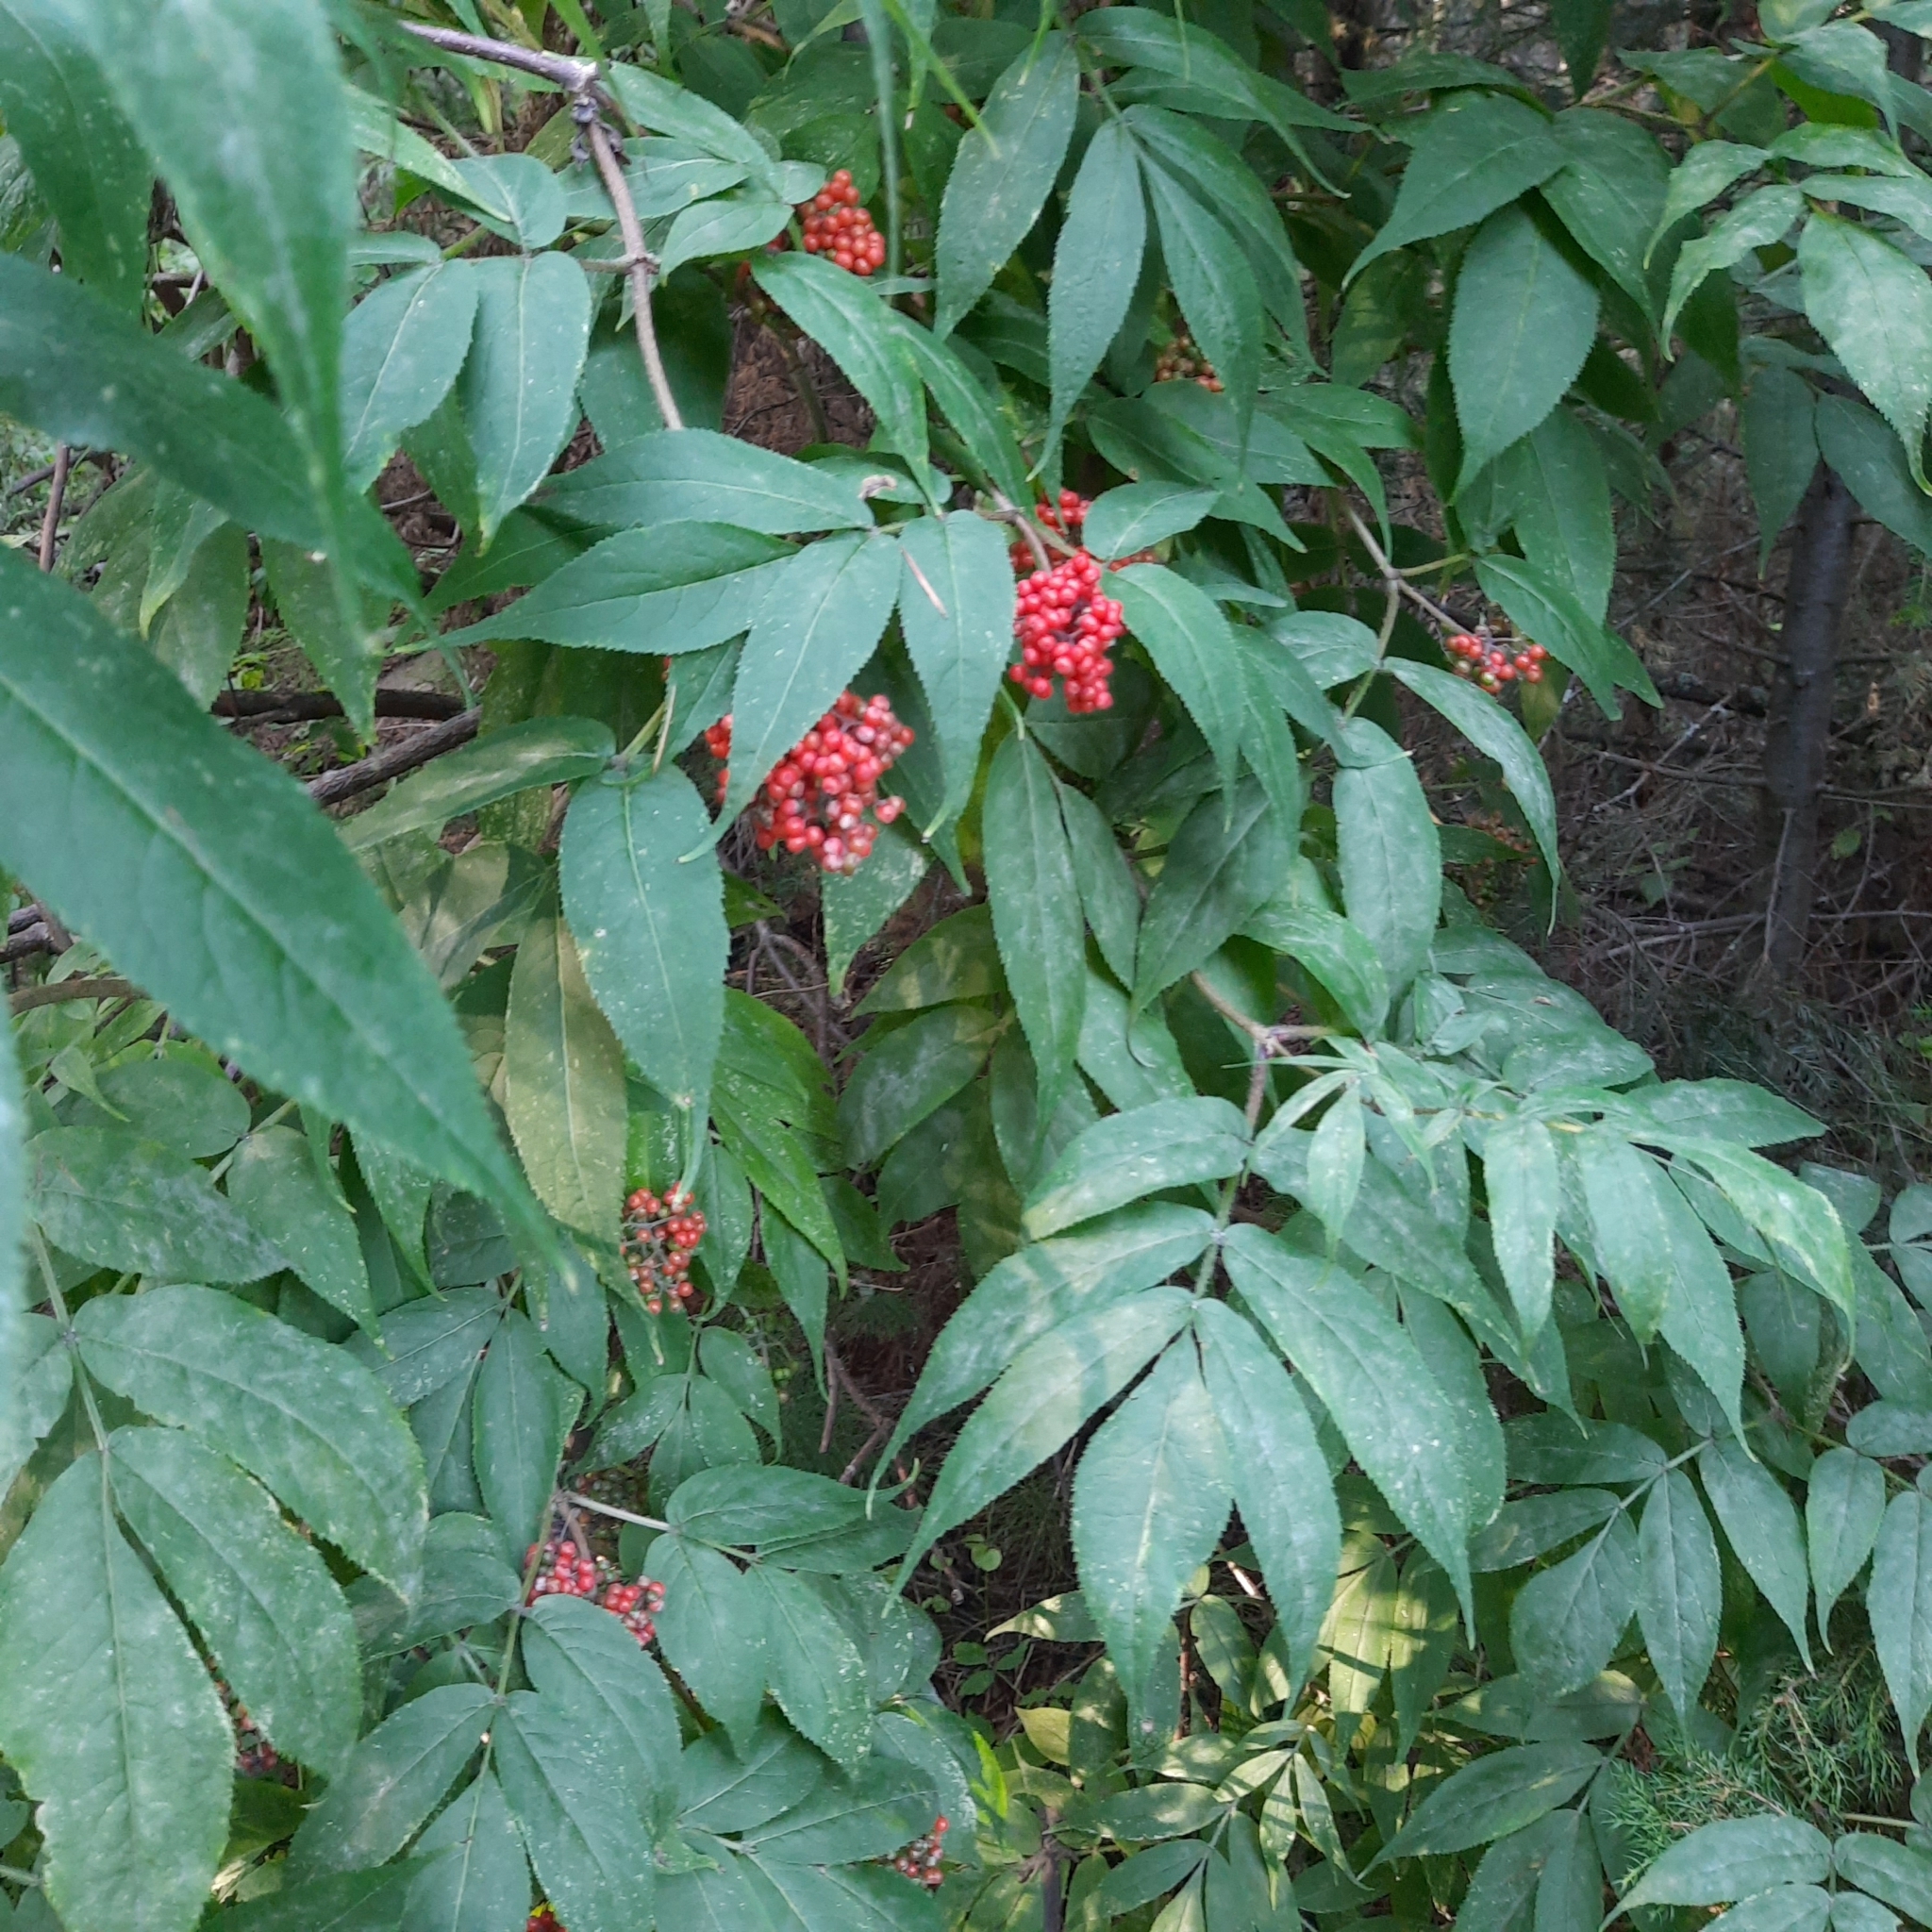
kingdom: Plantae
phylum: Tracheophyta
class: Magnoliopsida
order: Dipsacales
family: Viburnaceae
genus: Sambucus
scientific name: Sambucus sibirica
